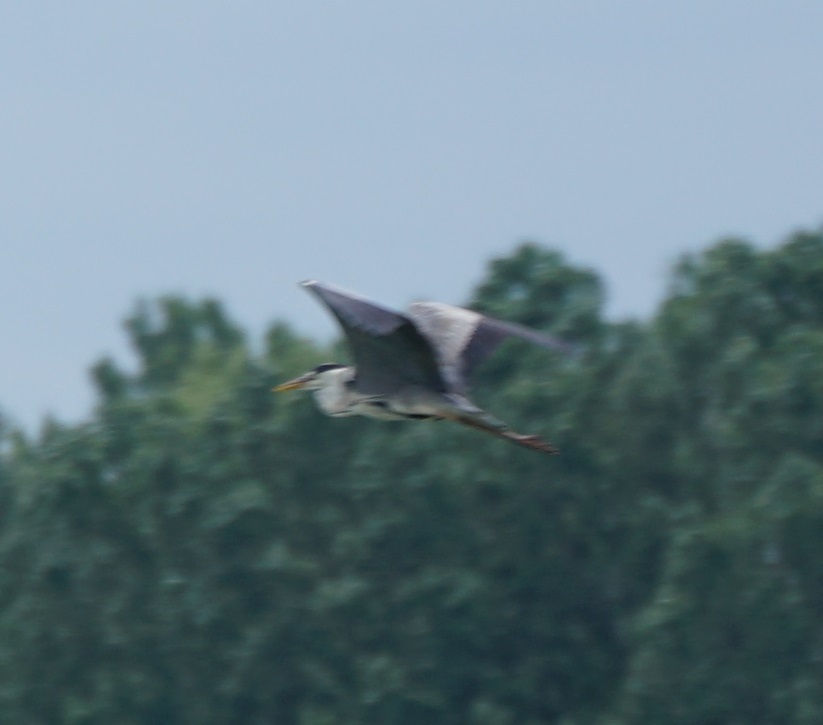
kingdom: Animalia
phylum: Chordata
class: Aves
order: Pelecaniformes
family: Ardeidae
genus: Ardea
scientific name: Ardea cinerea
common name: Grey heron
